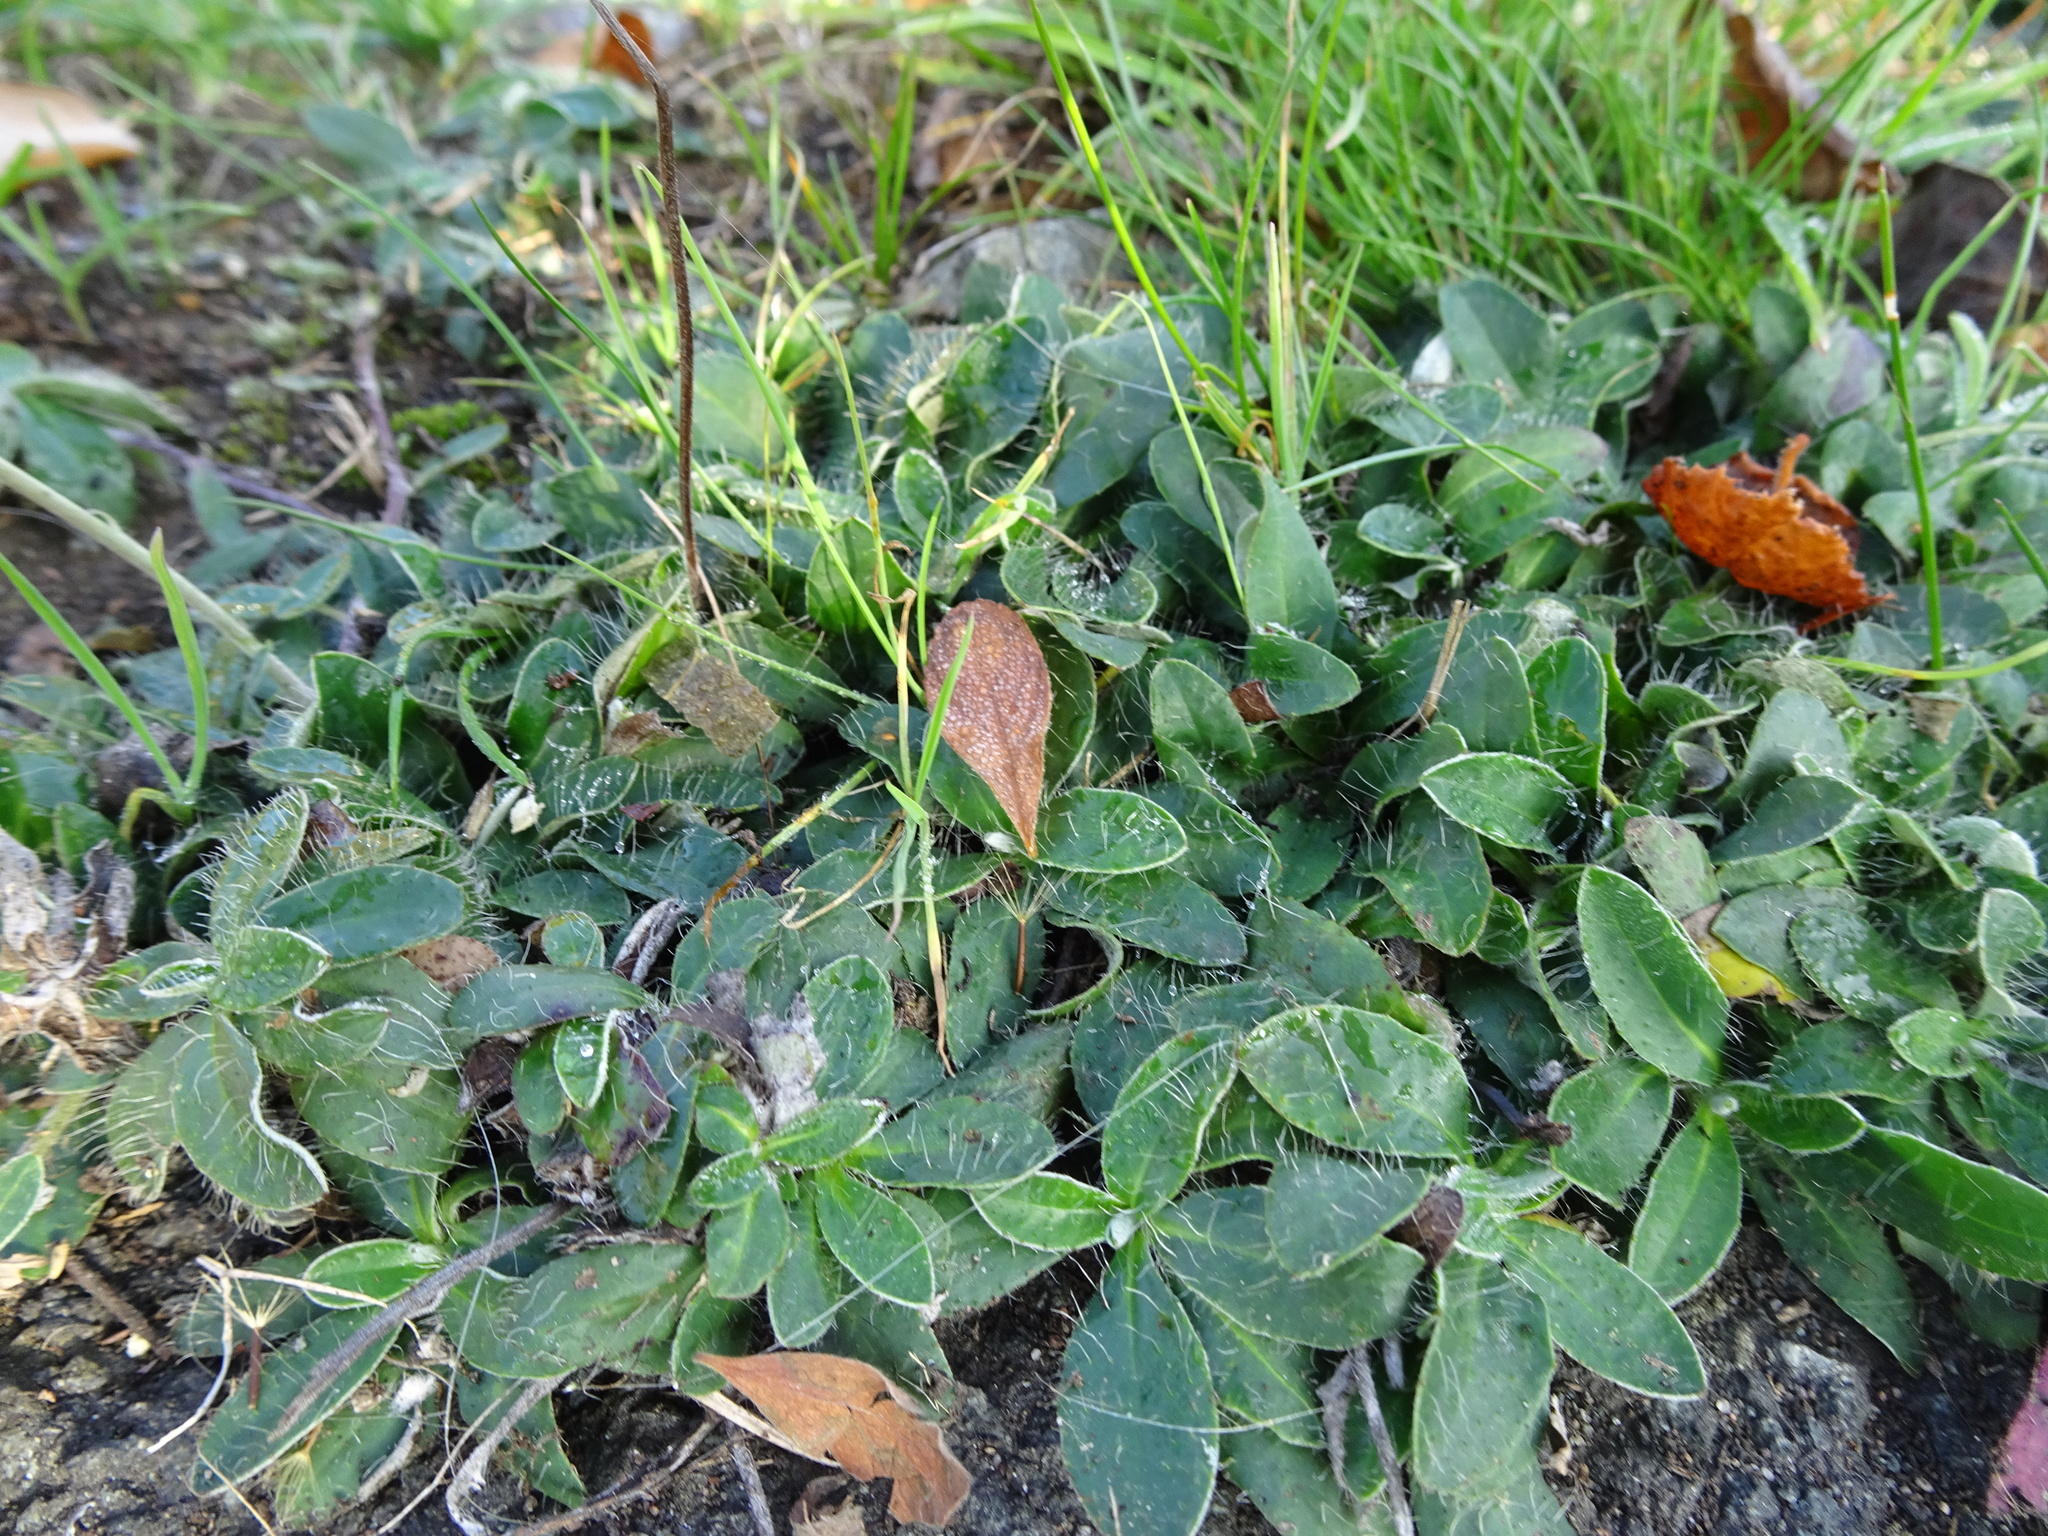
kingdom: Plantae
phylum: Tracheophyta
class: Magnoliopsida
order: Asterales
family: Asteraceae
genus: Pilosella
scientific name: Pilosella officinarum
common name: Mouse-ear hawkweed
